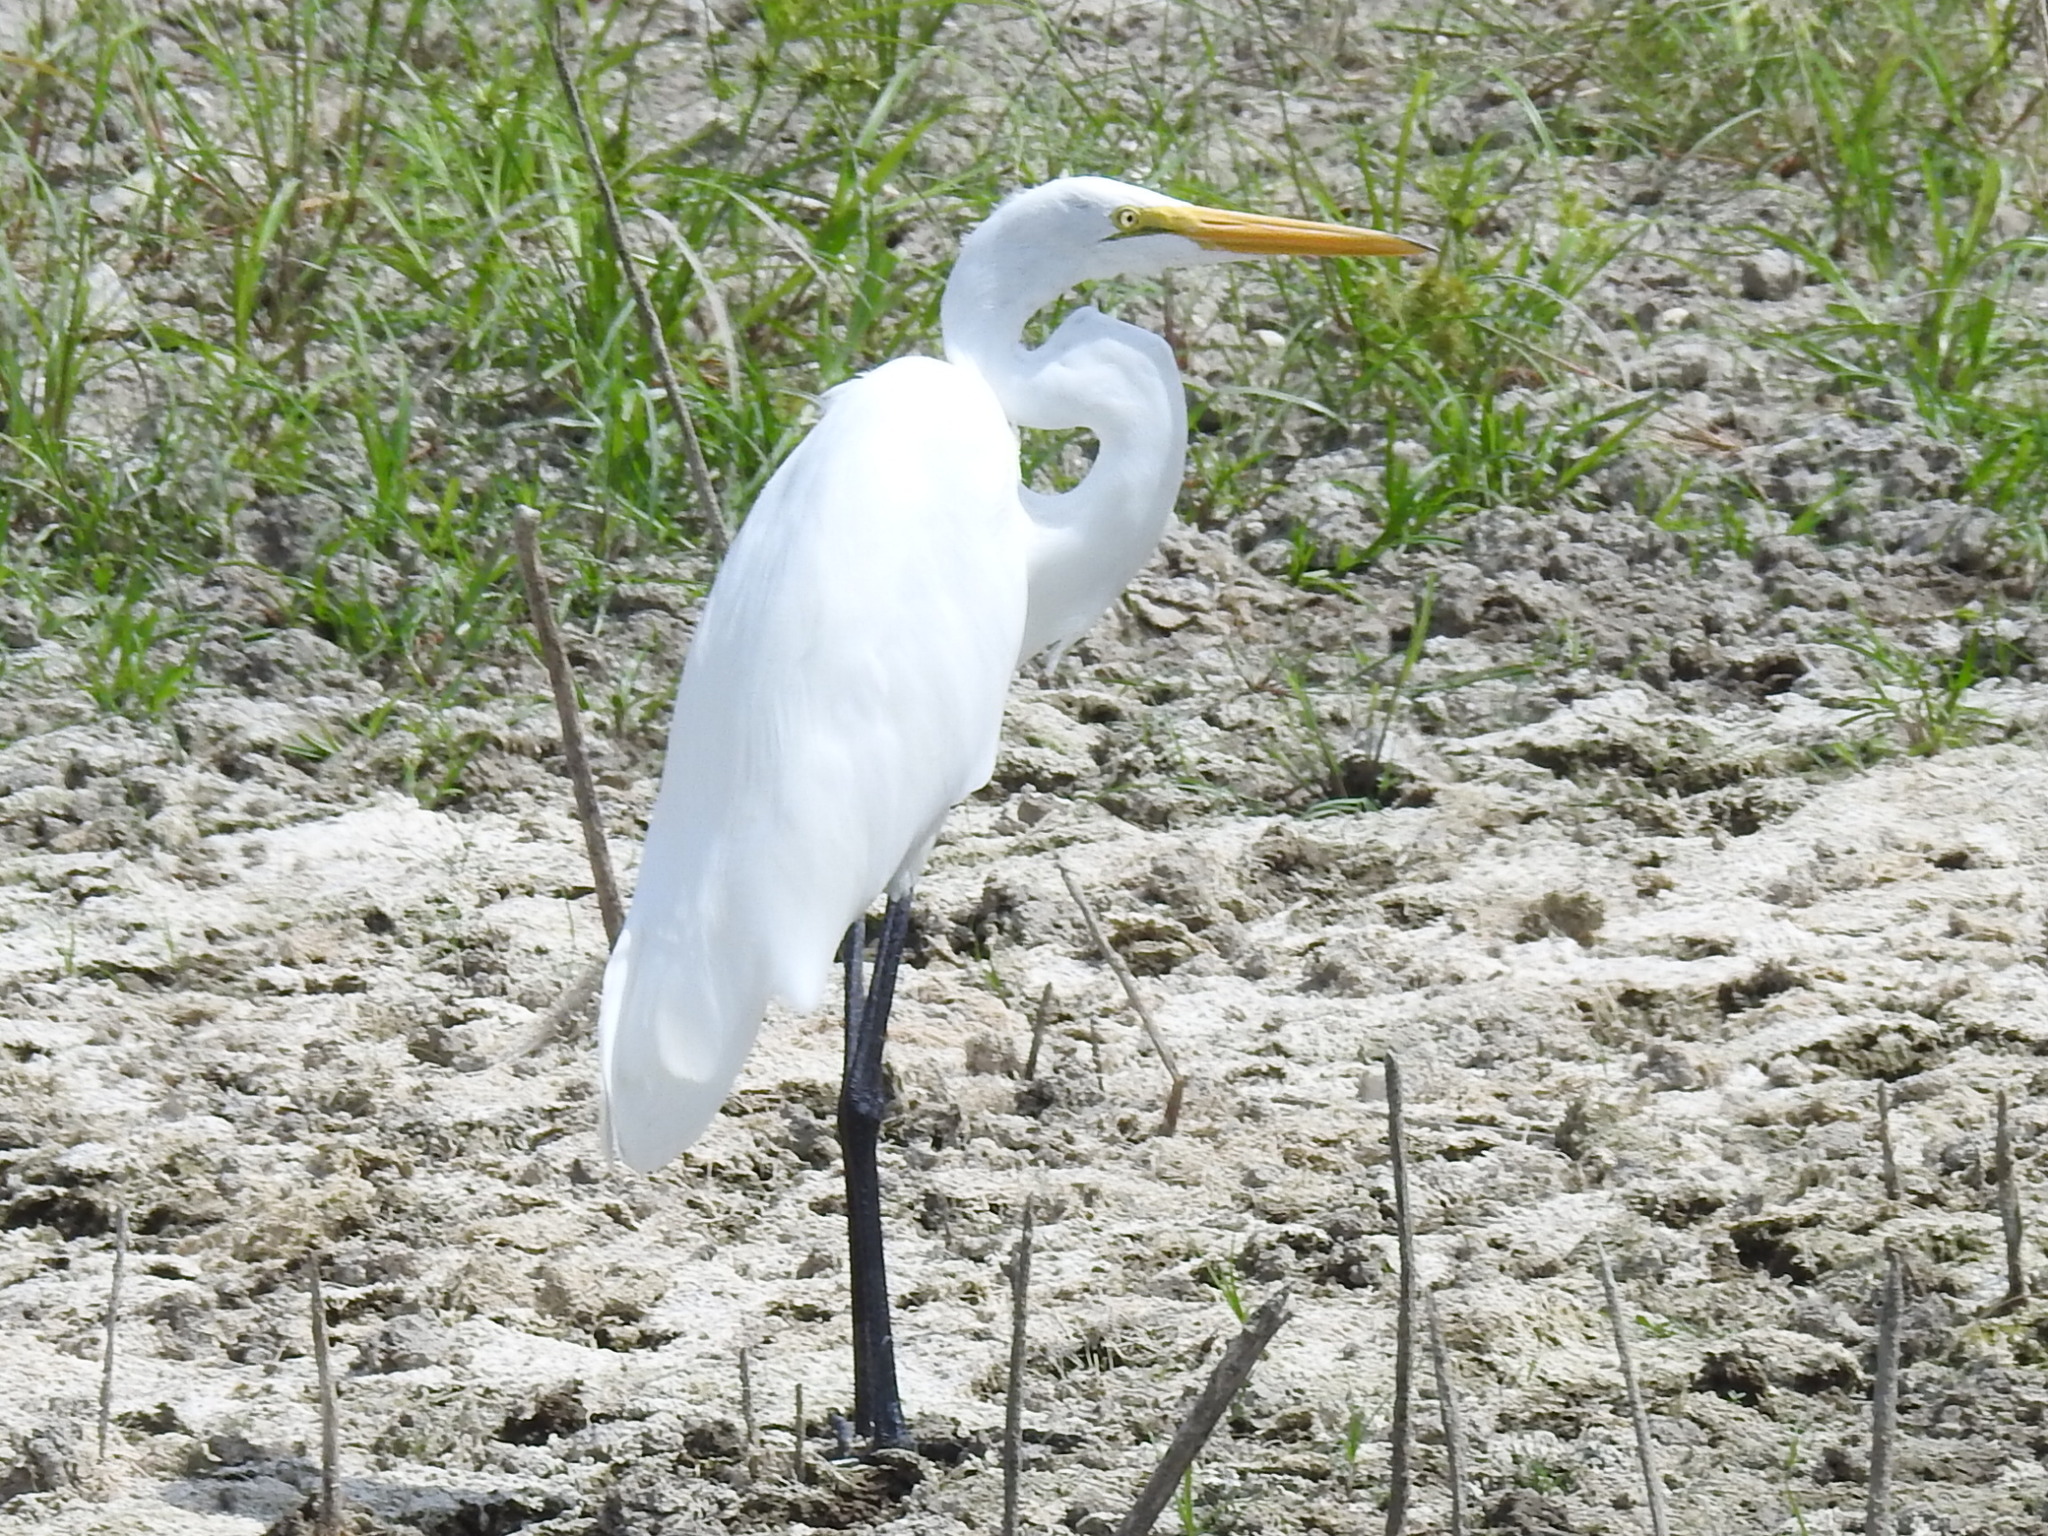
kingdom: Animalia
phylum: Chordata
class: Aves
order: Pelecaniformes
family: Ardeidae
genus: Ardea
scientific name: Ardea alba
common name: Great egret
